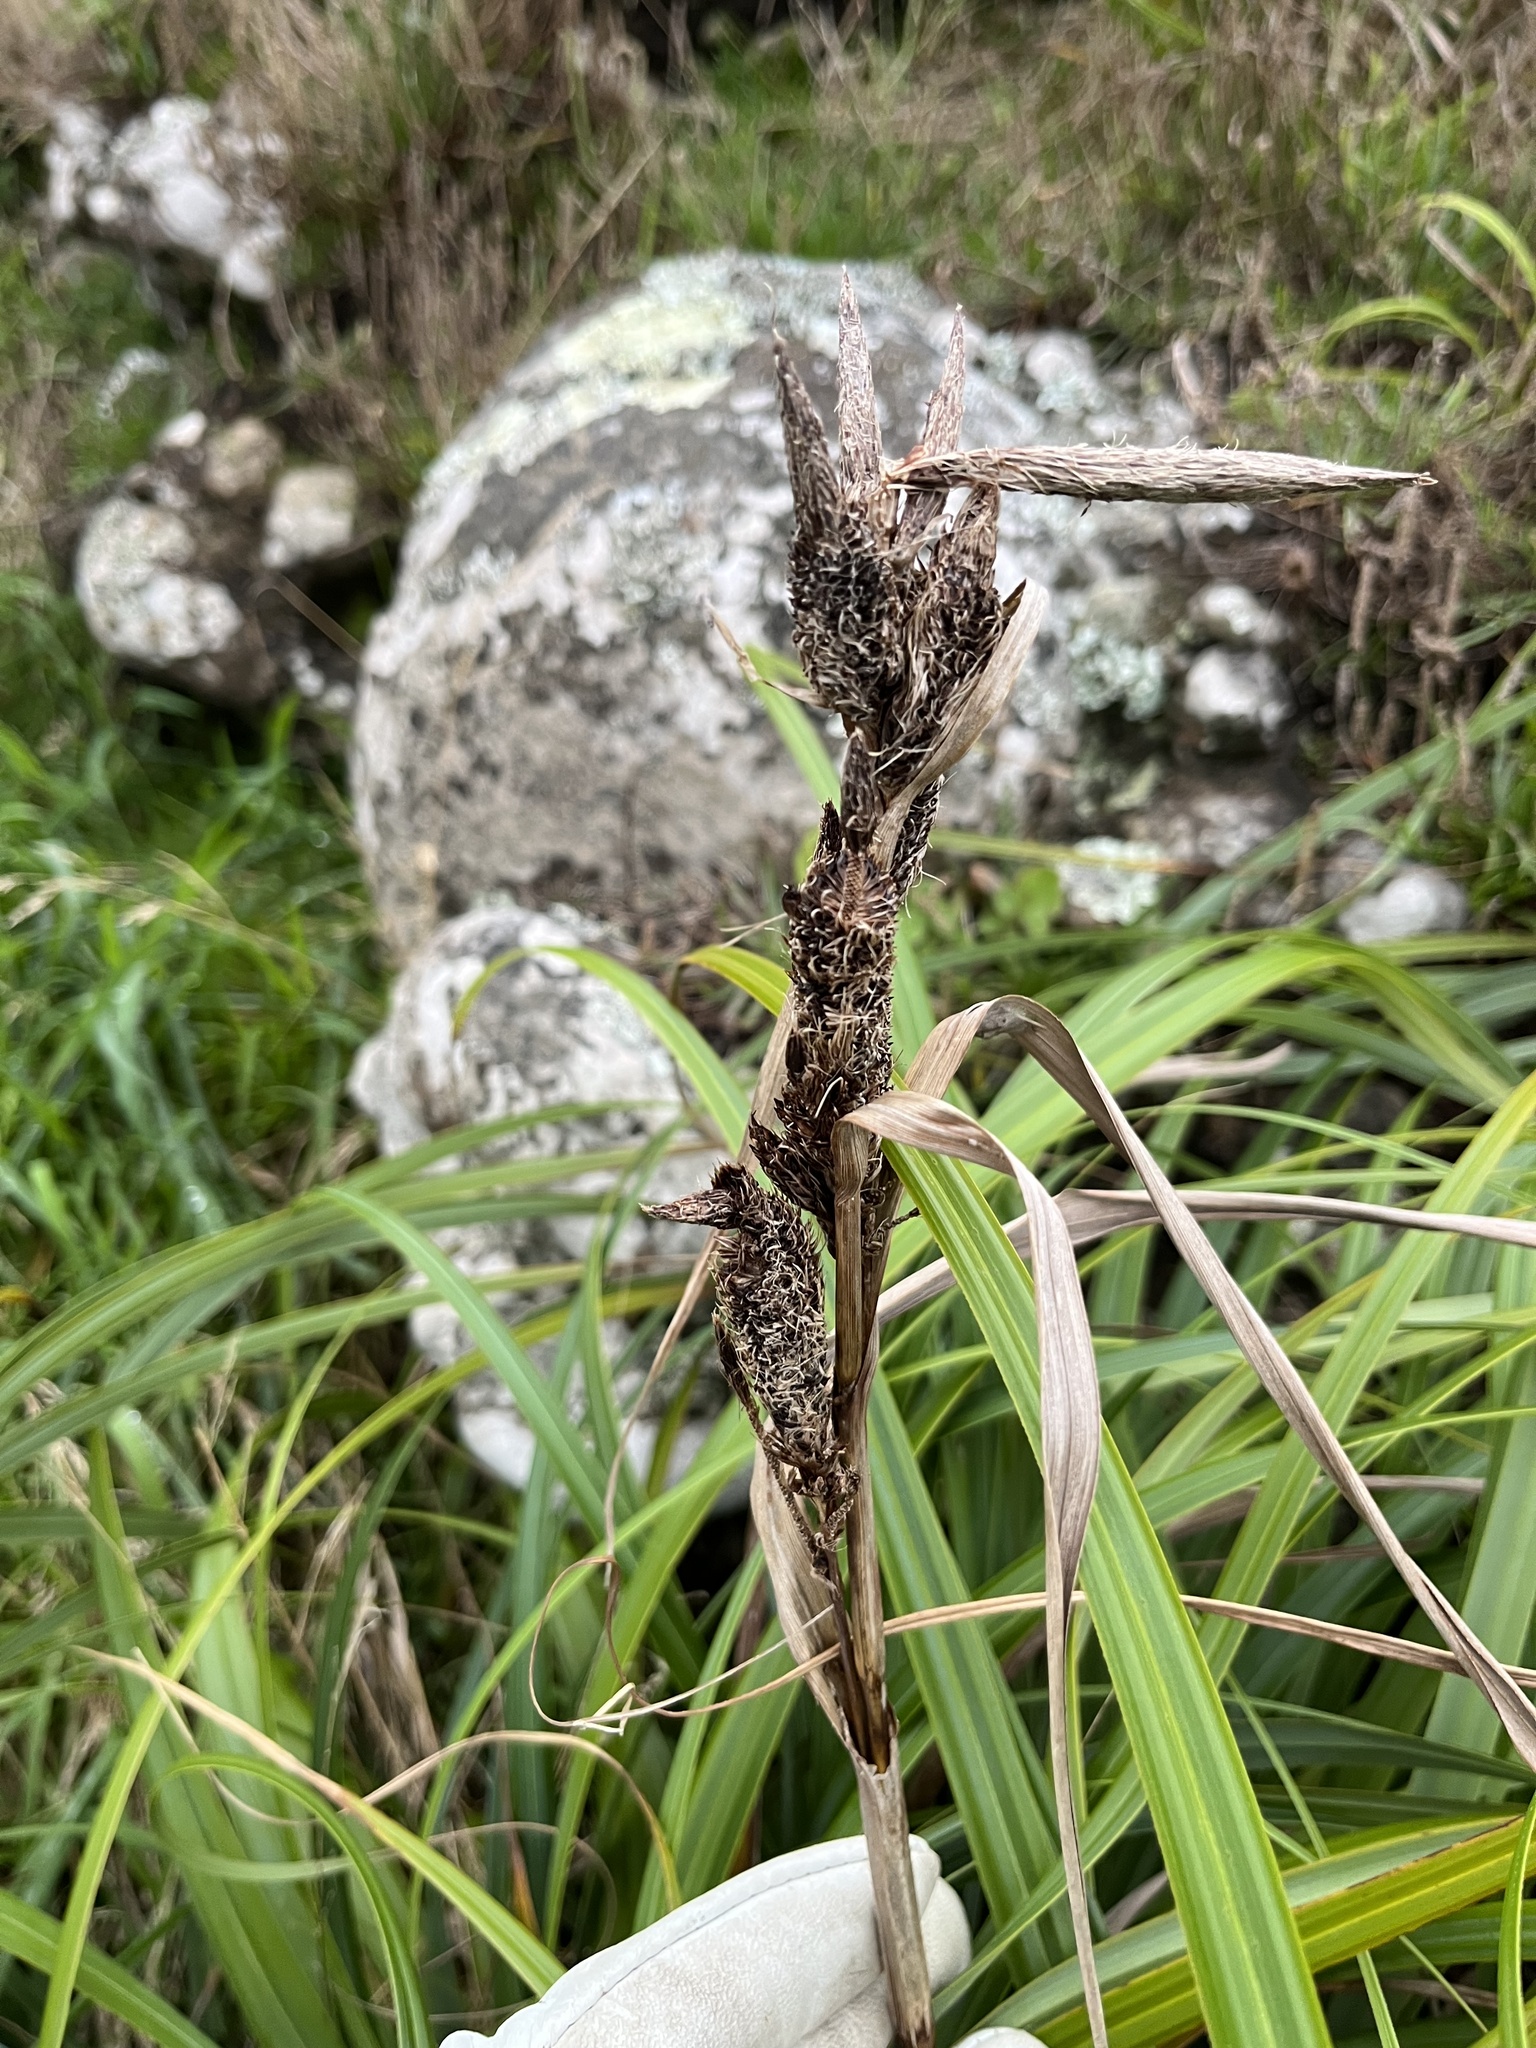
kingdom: Plantae
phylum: Tracheophyta
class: Liliopsida
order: Poales
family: Cyperaceae
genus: Carex
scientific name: Carex trifida
